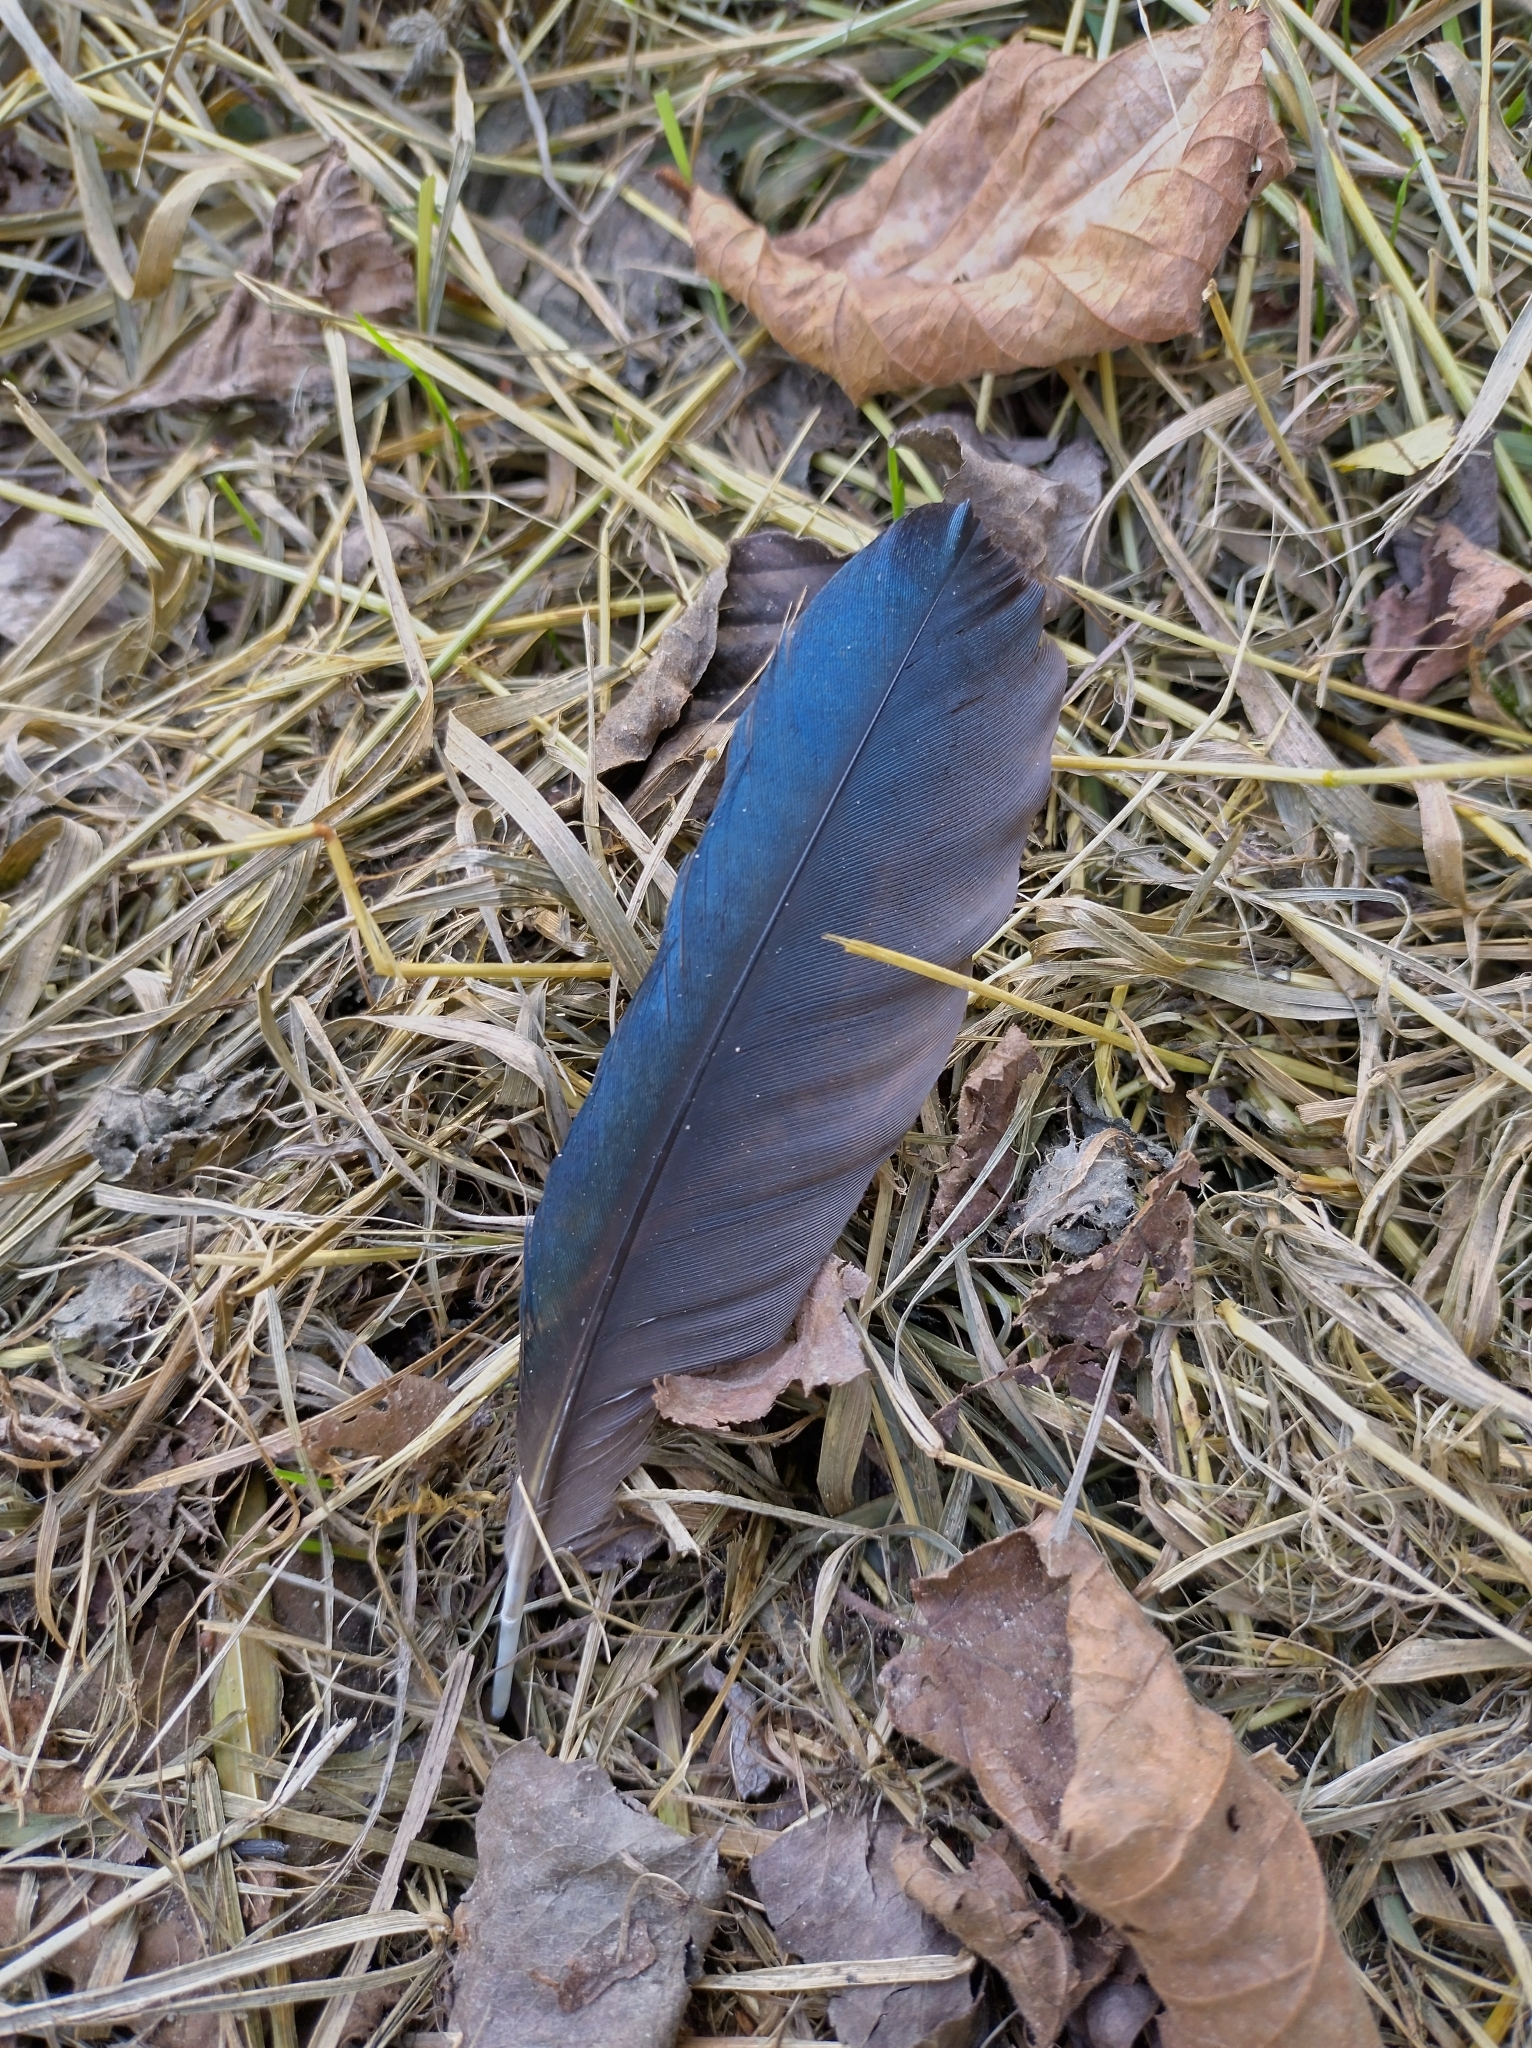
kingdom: Animalia
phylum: Chordata
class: Aves
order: Passeriformes
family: Corvidae
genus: Pica
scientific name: Pica pica
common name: Eurasian magpie
